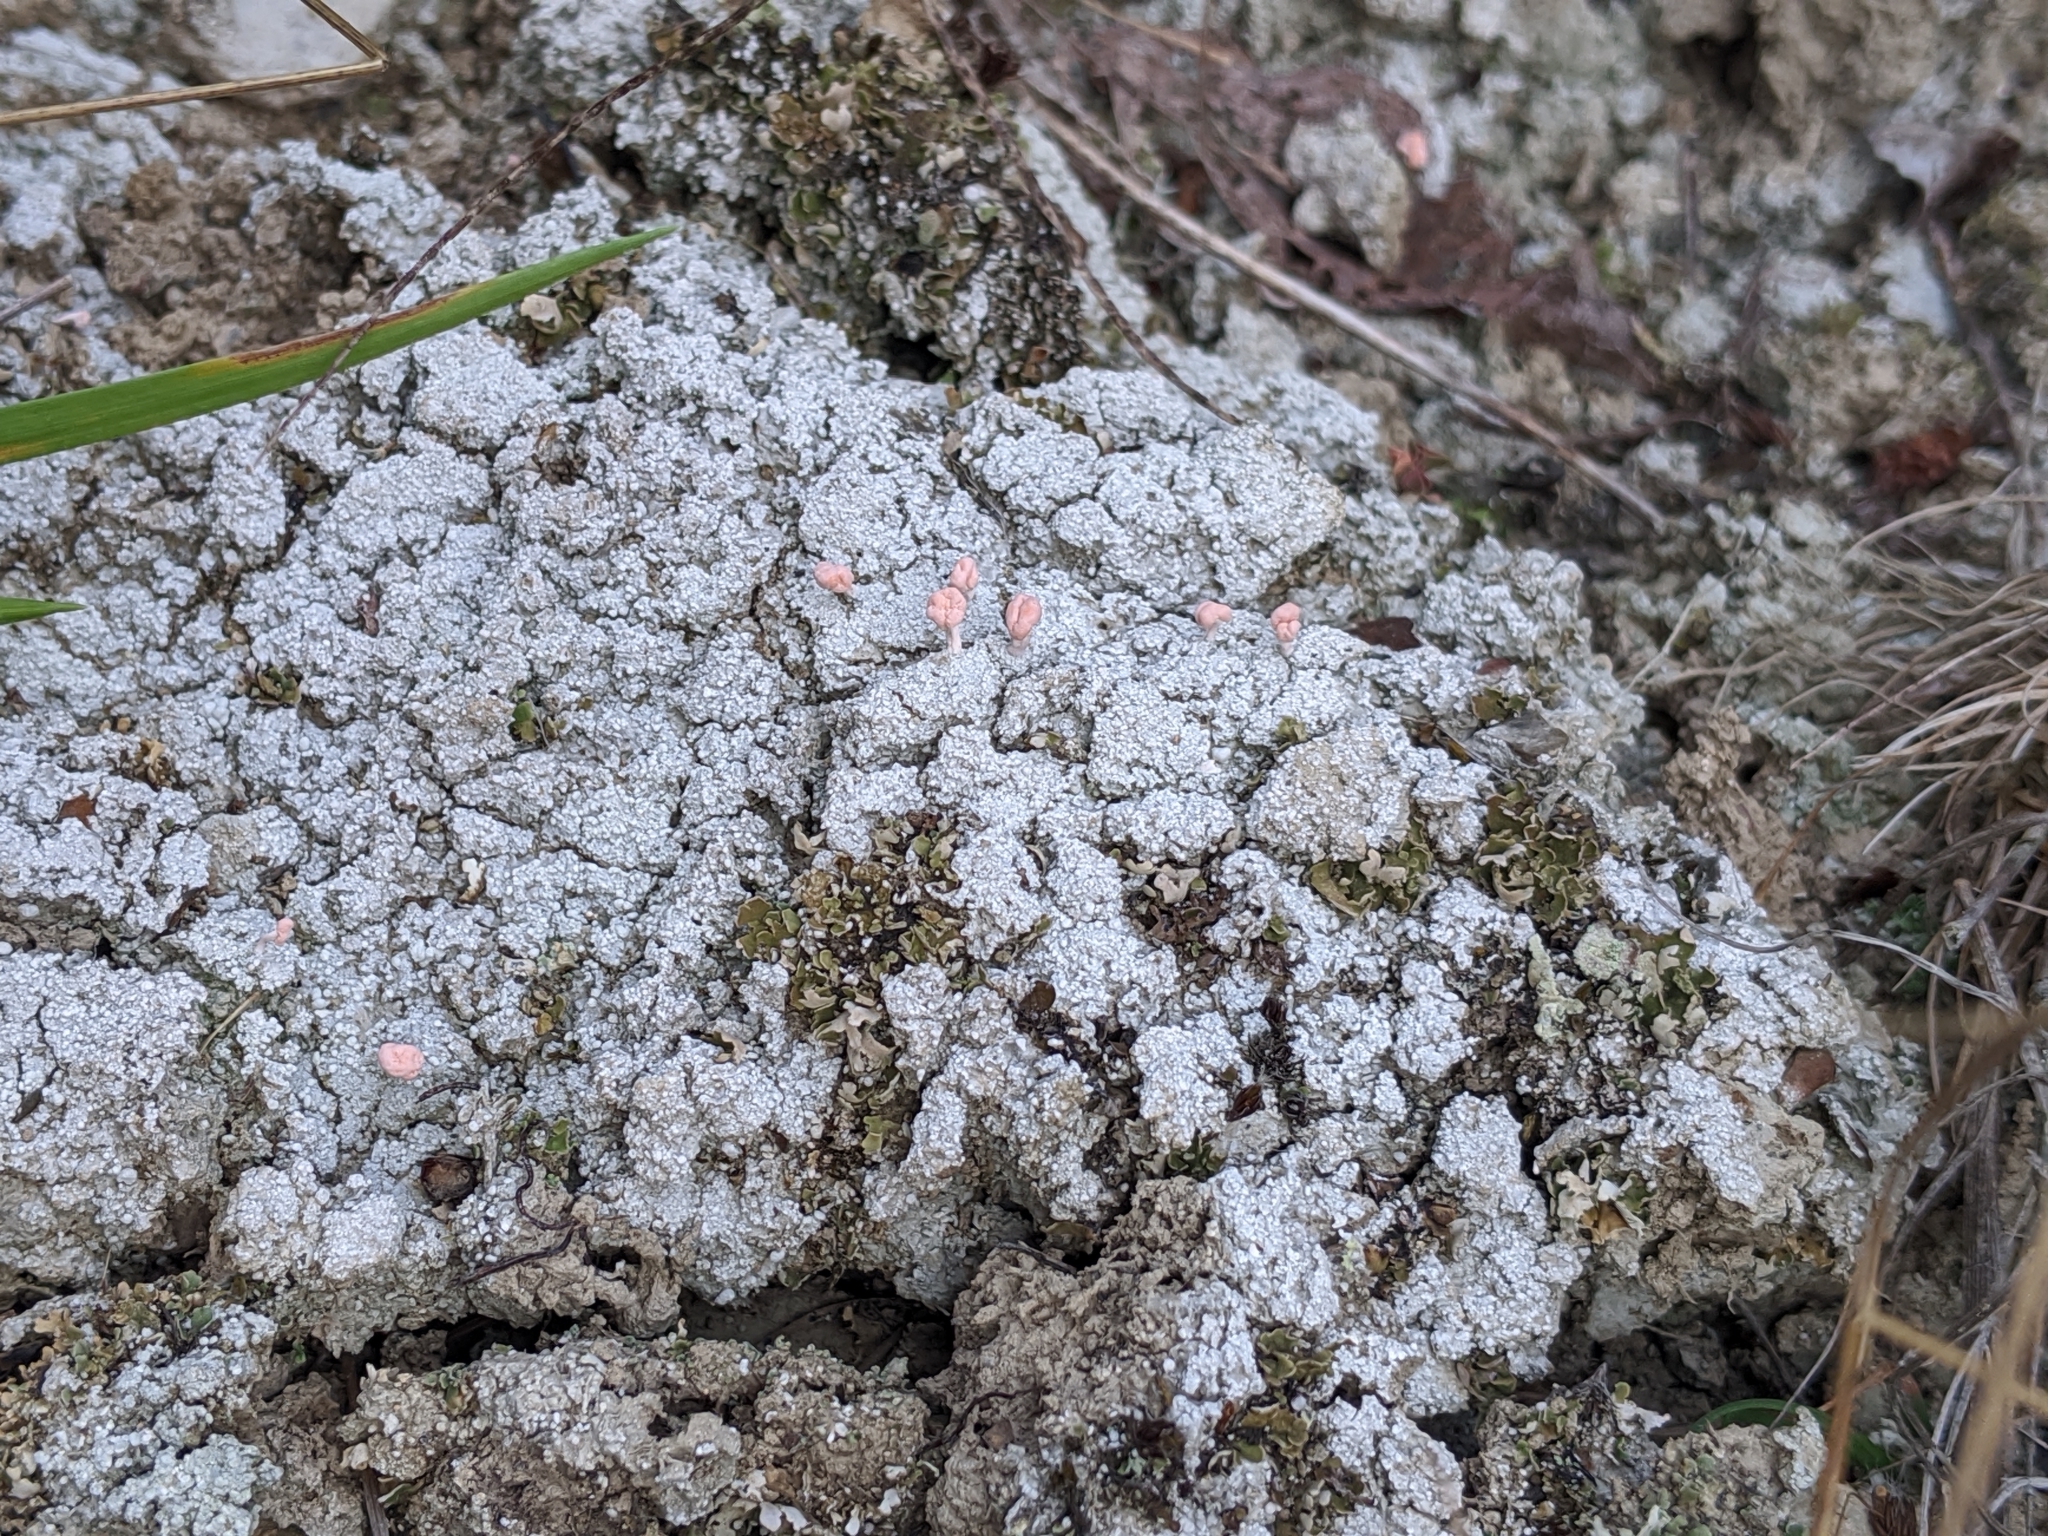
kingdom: Fungi
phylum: Ascomycota
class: Lecanoromycetes
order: Pertusariales
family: Icmadophilaceae
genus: Dibaeis
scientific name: Dibaeis baeomyces
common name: Pink earth lichen
